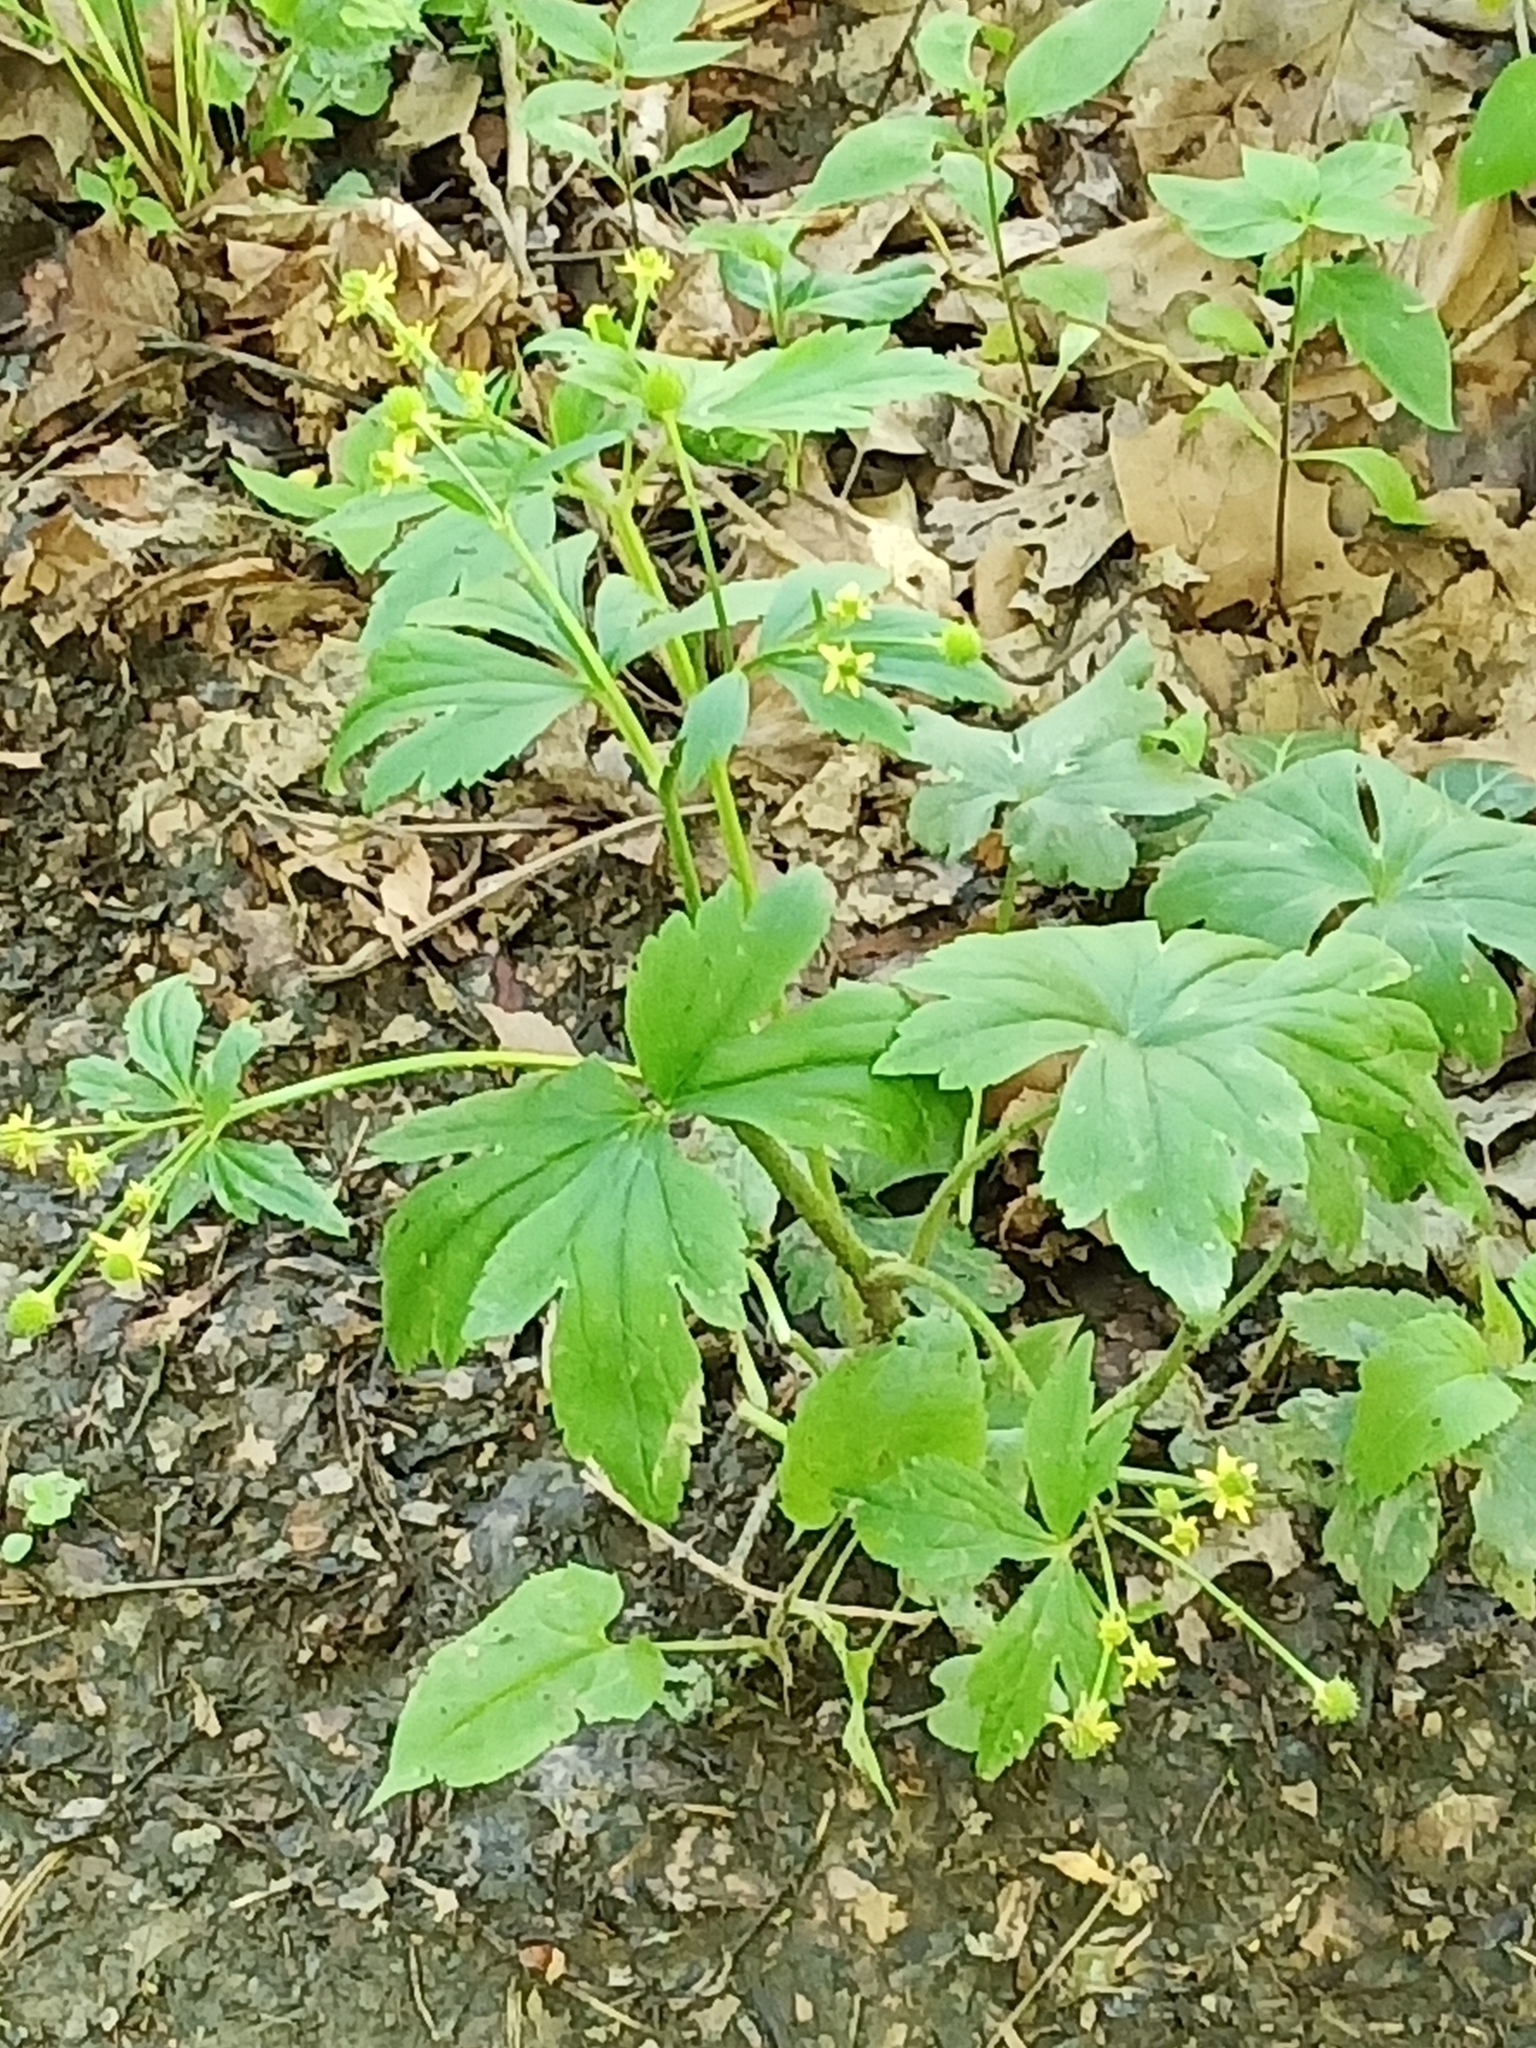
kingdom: Plantae
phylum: Tracheophyta
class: Magnoliopsida
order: Ranunculales
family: Ranunculaceae
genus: Ranunculus
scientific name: Ranunculus recurvatus
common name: Blisterwort
